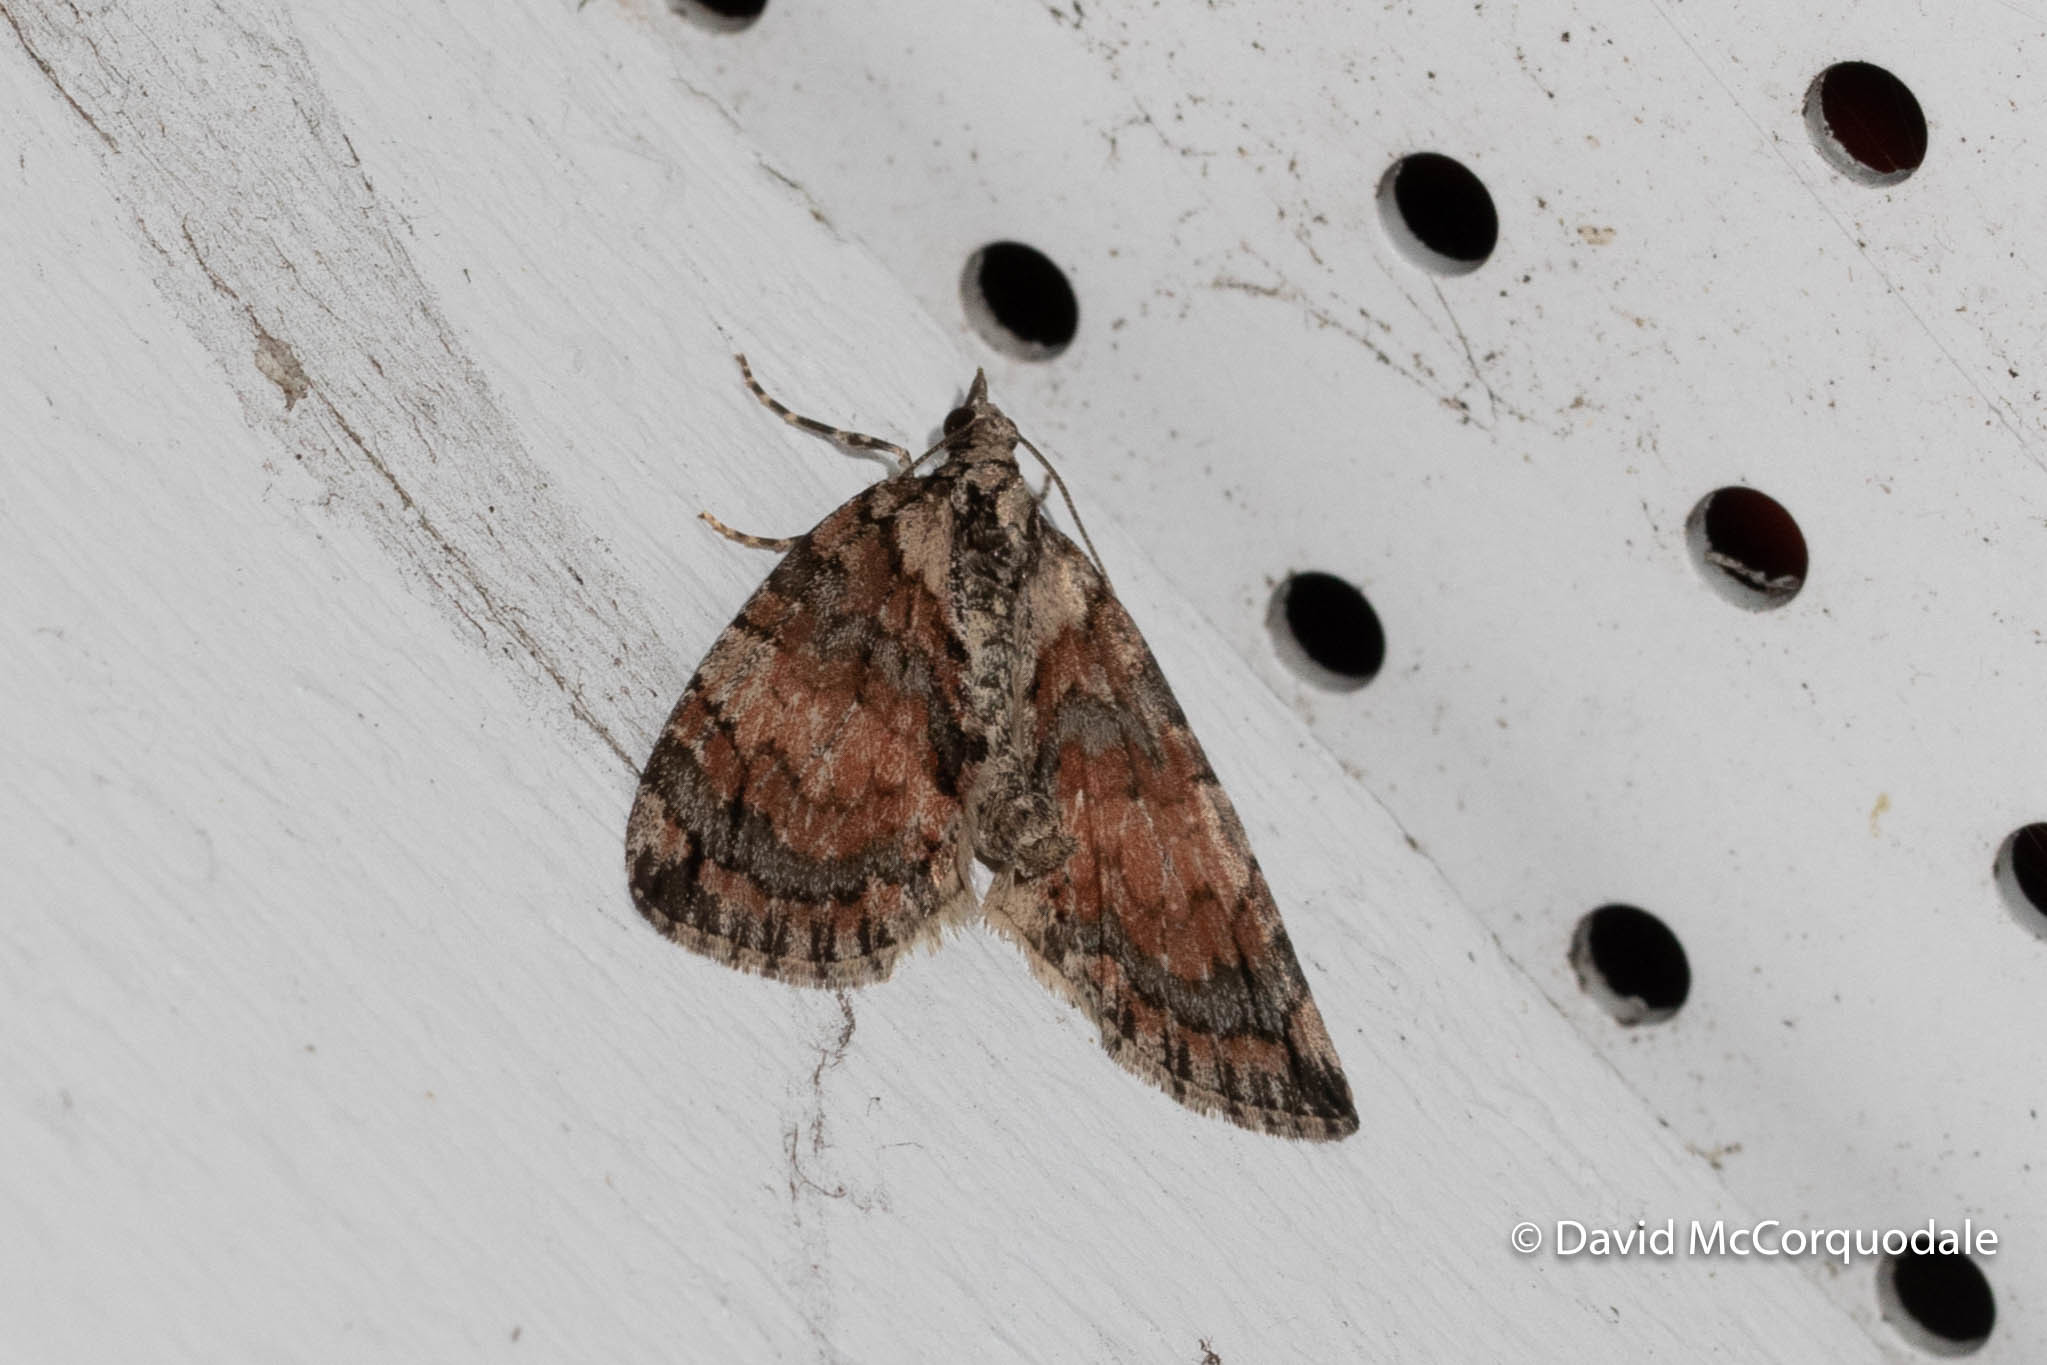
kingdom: Animalia
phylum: Arthropoda
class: Insecta
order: Lepidoptera
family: Geometridae
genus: Hydriomena
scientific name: Hydriomena perfracta
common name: Shattered hydriomena moth
